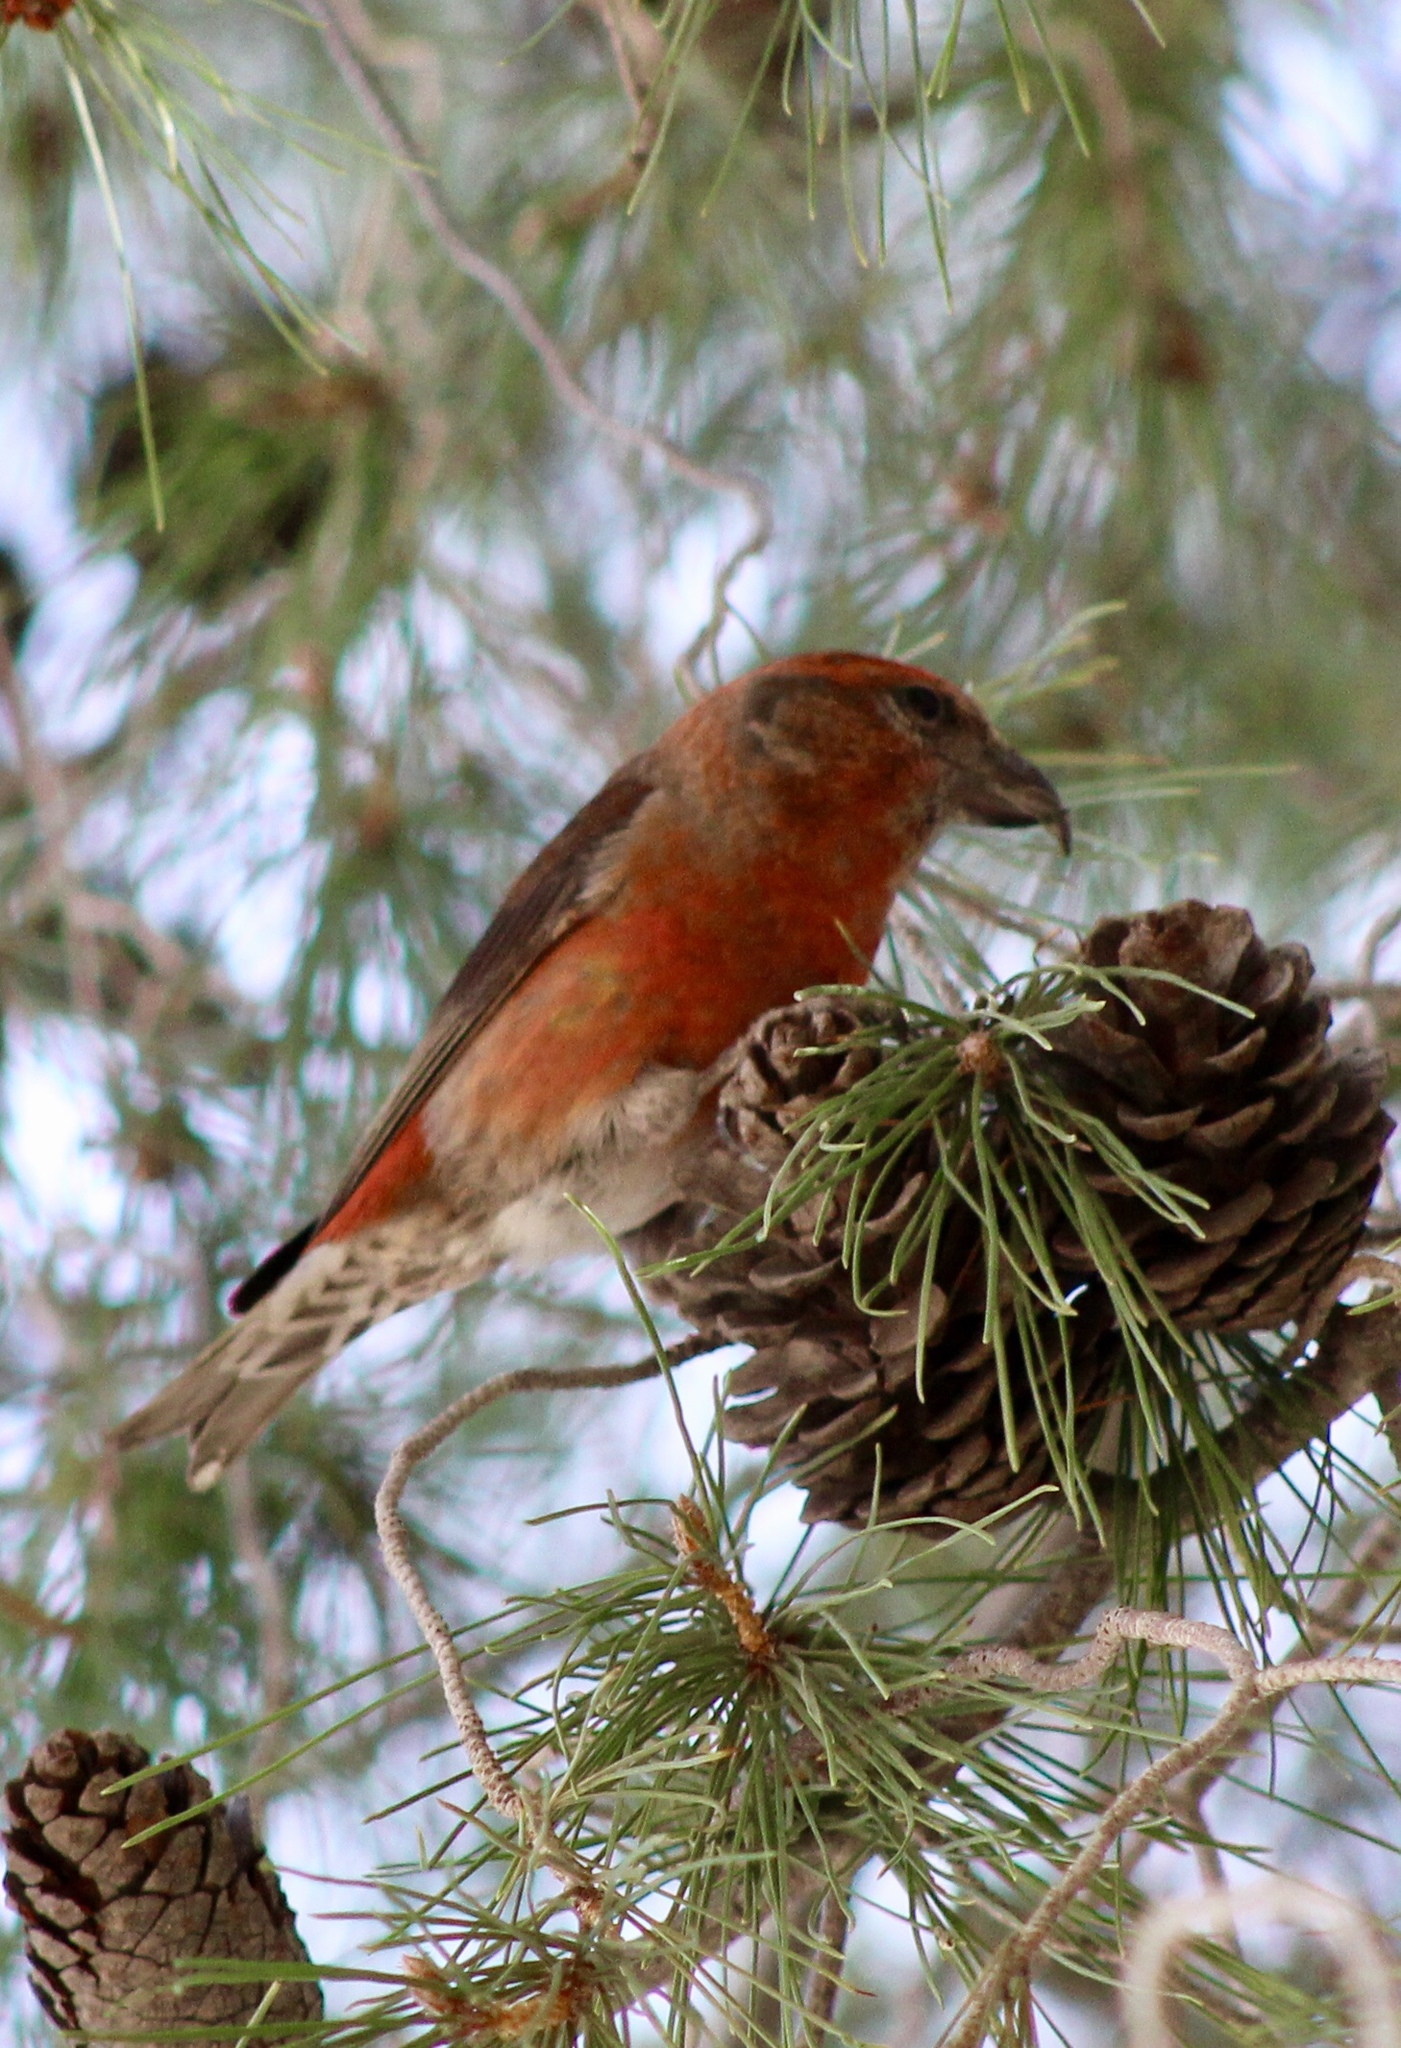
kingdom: Animalia
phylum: Chordata
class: Aves
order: Passeriformes
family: Fringillidae
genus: Loxia
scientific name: Loxia curvirostra
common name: Red crossbill
